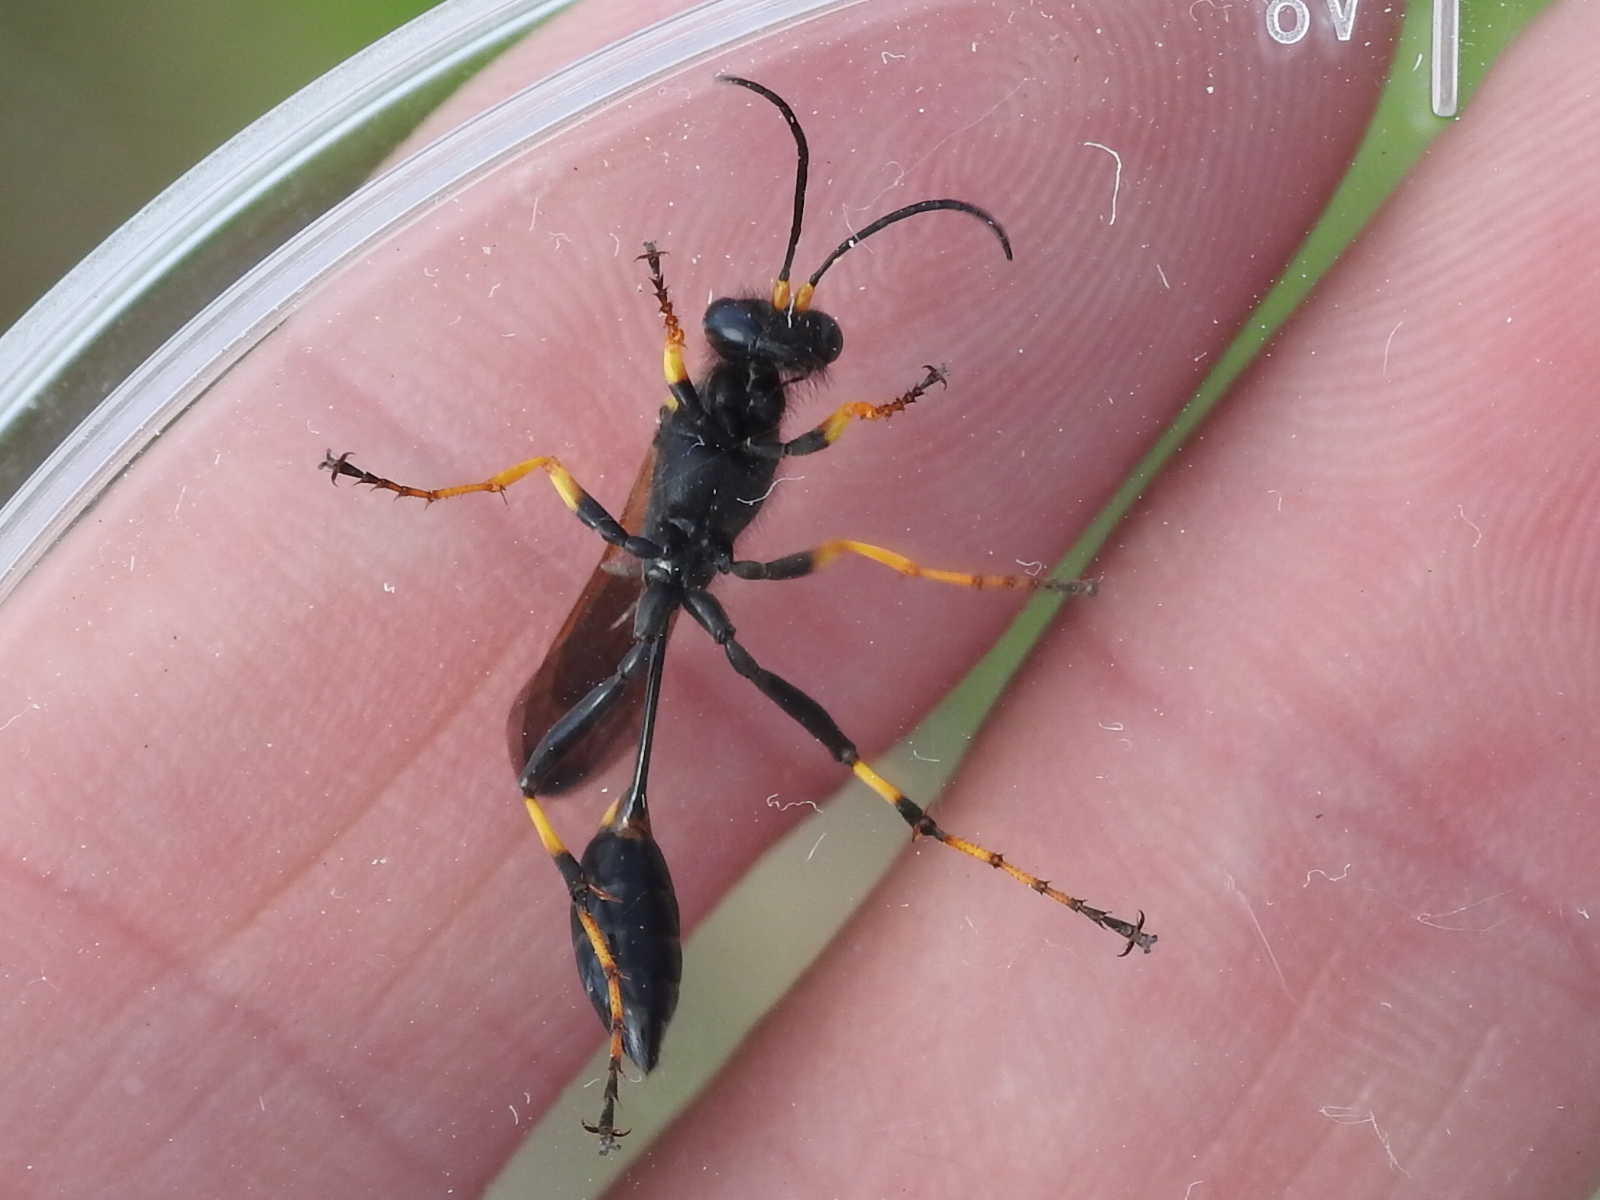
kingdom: Animalia
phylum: Arthropoda
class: Insecta
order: Hymenoptera
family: Sphecidae
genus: Sceliphron
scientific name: Sceliphron caementarium
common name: Mud dauber
